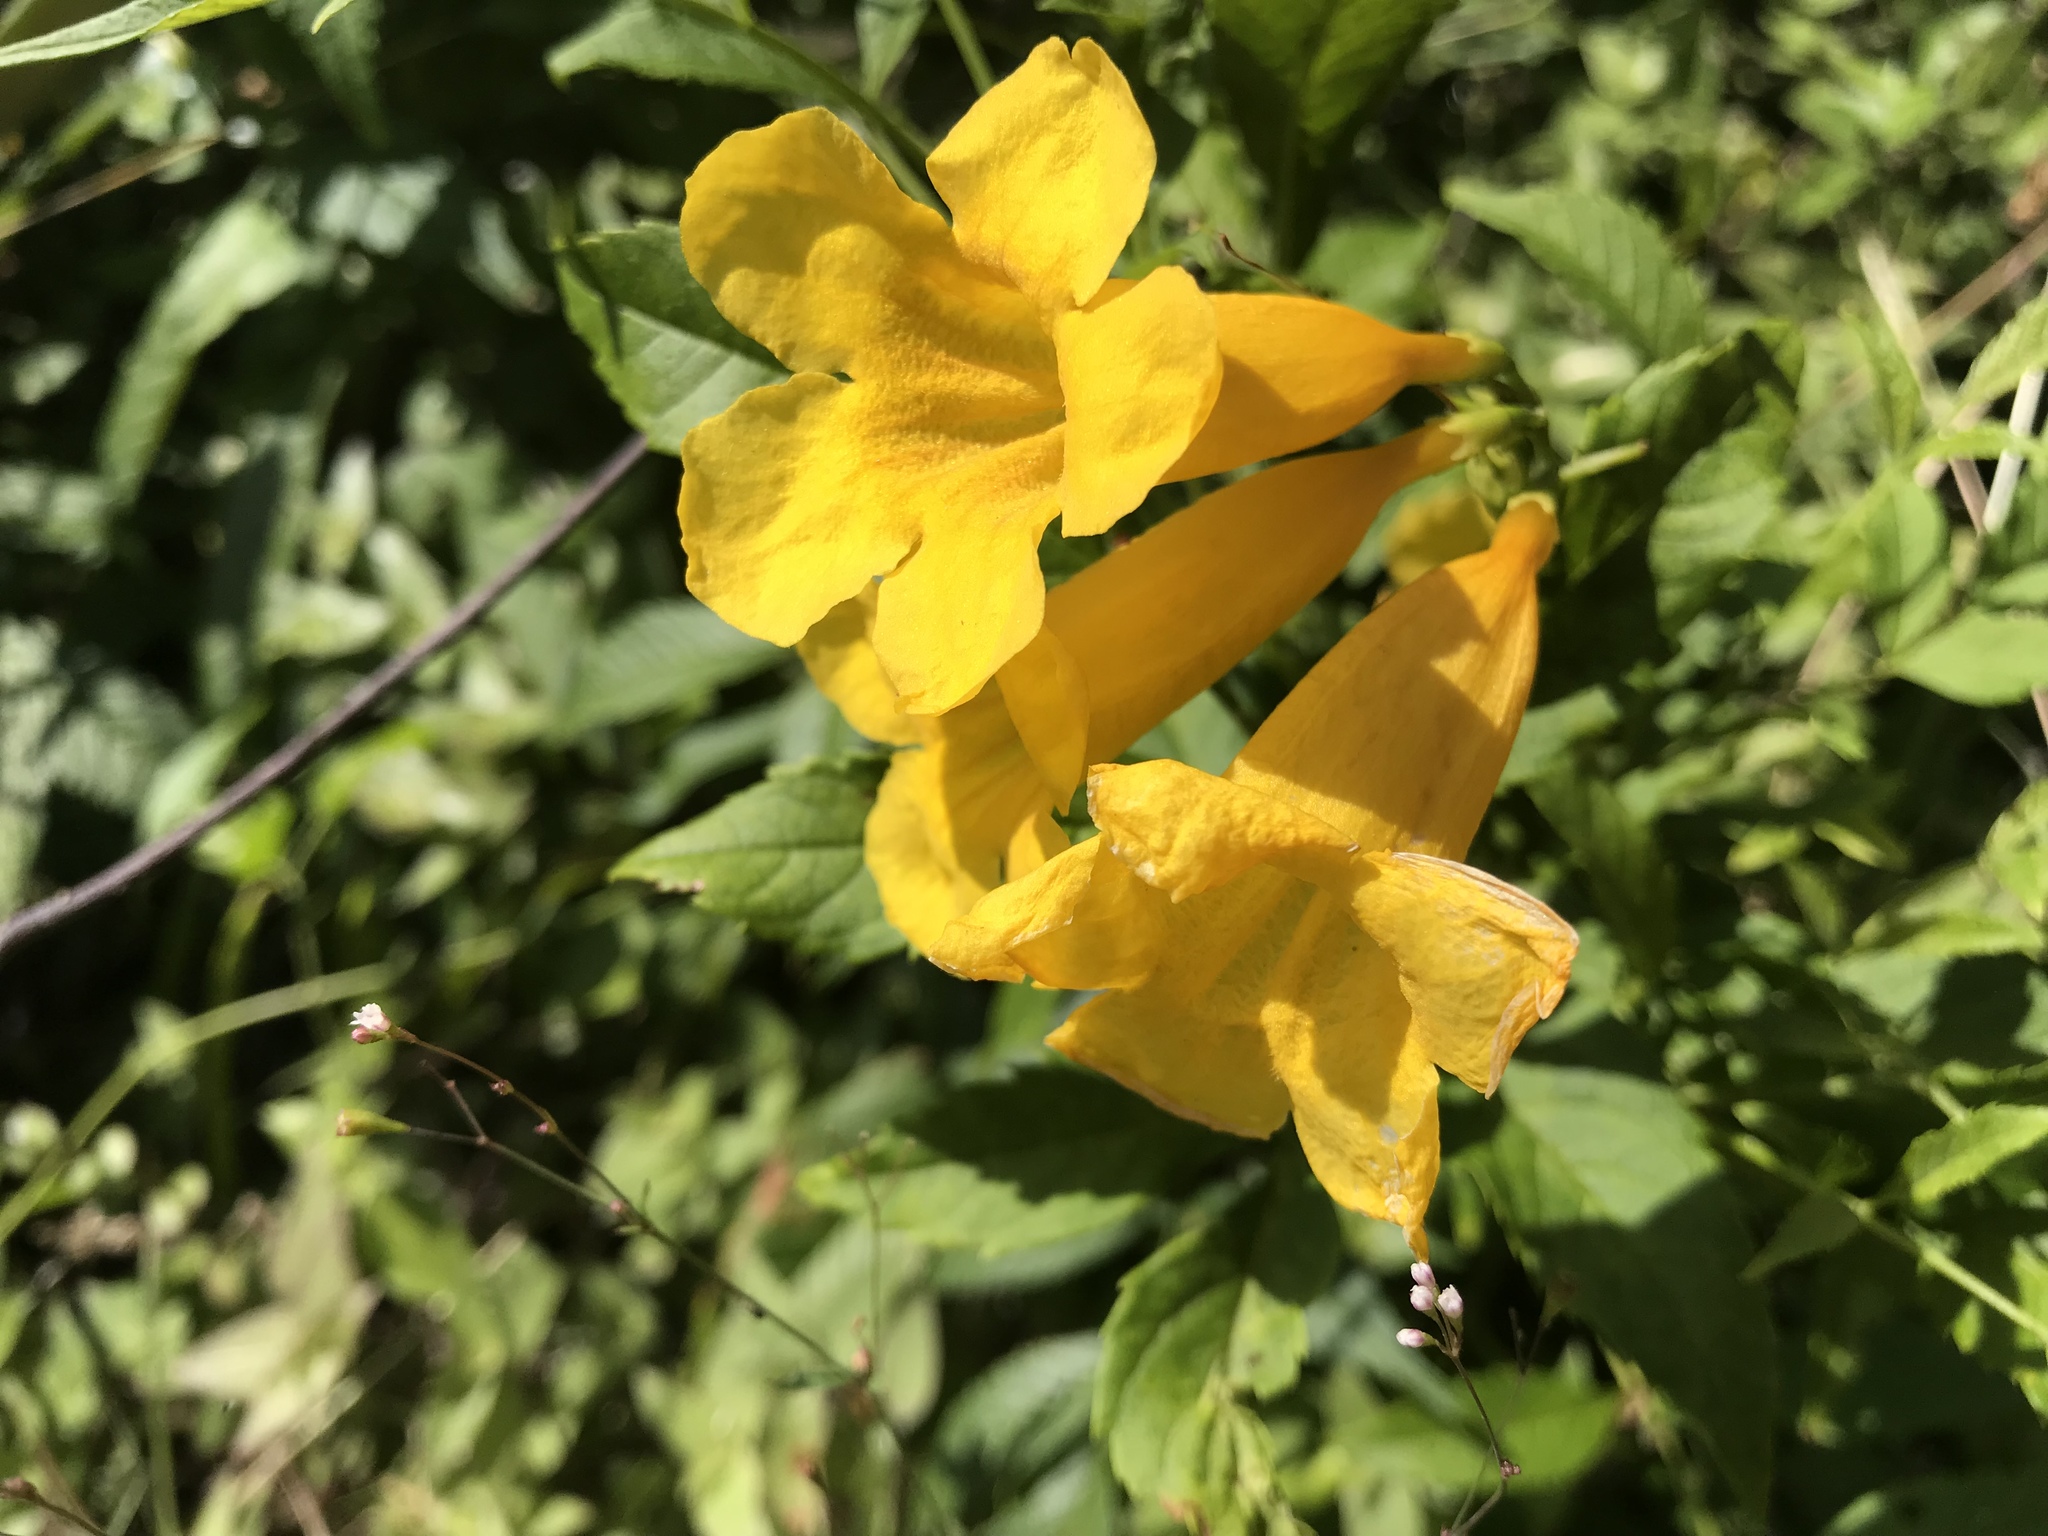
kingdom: Plantae
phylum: Tracheophyta
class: Magnoliopsida
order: Lamiales
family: Bignoniaceae
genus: Tecoma
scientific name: Tecoma stans
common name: Yellow trumpetbush
